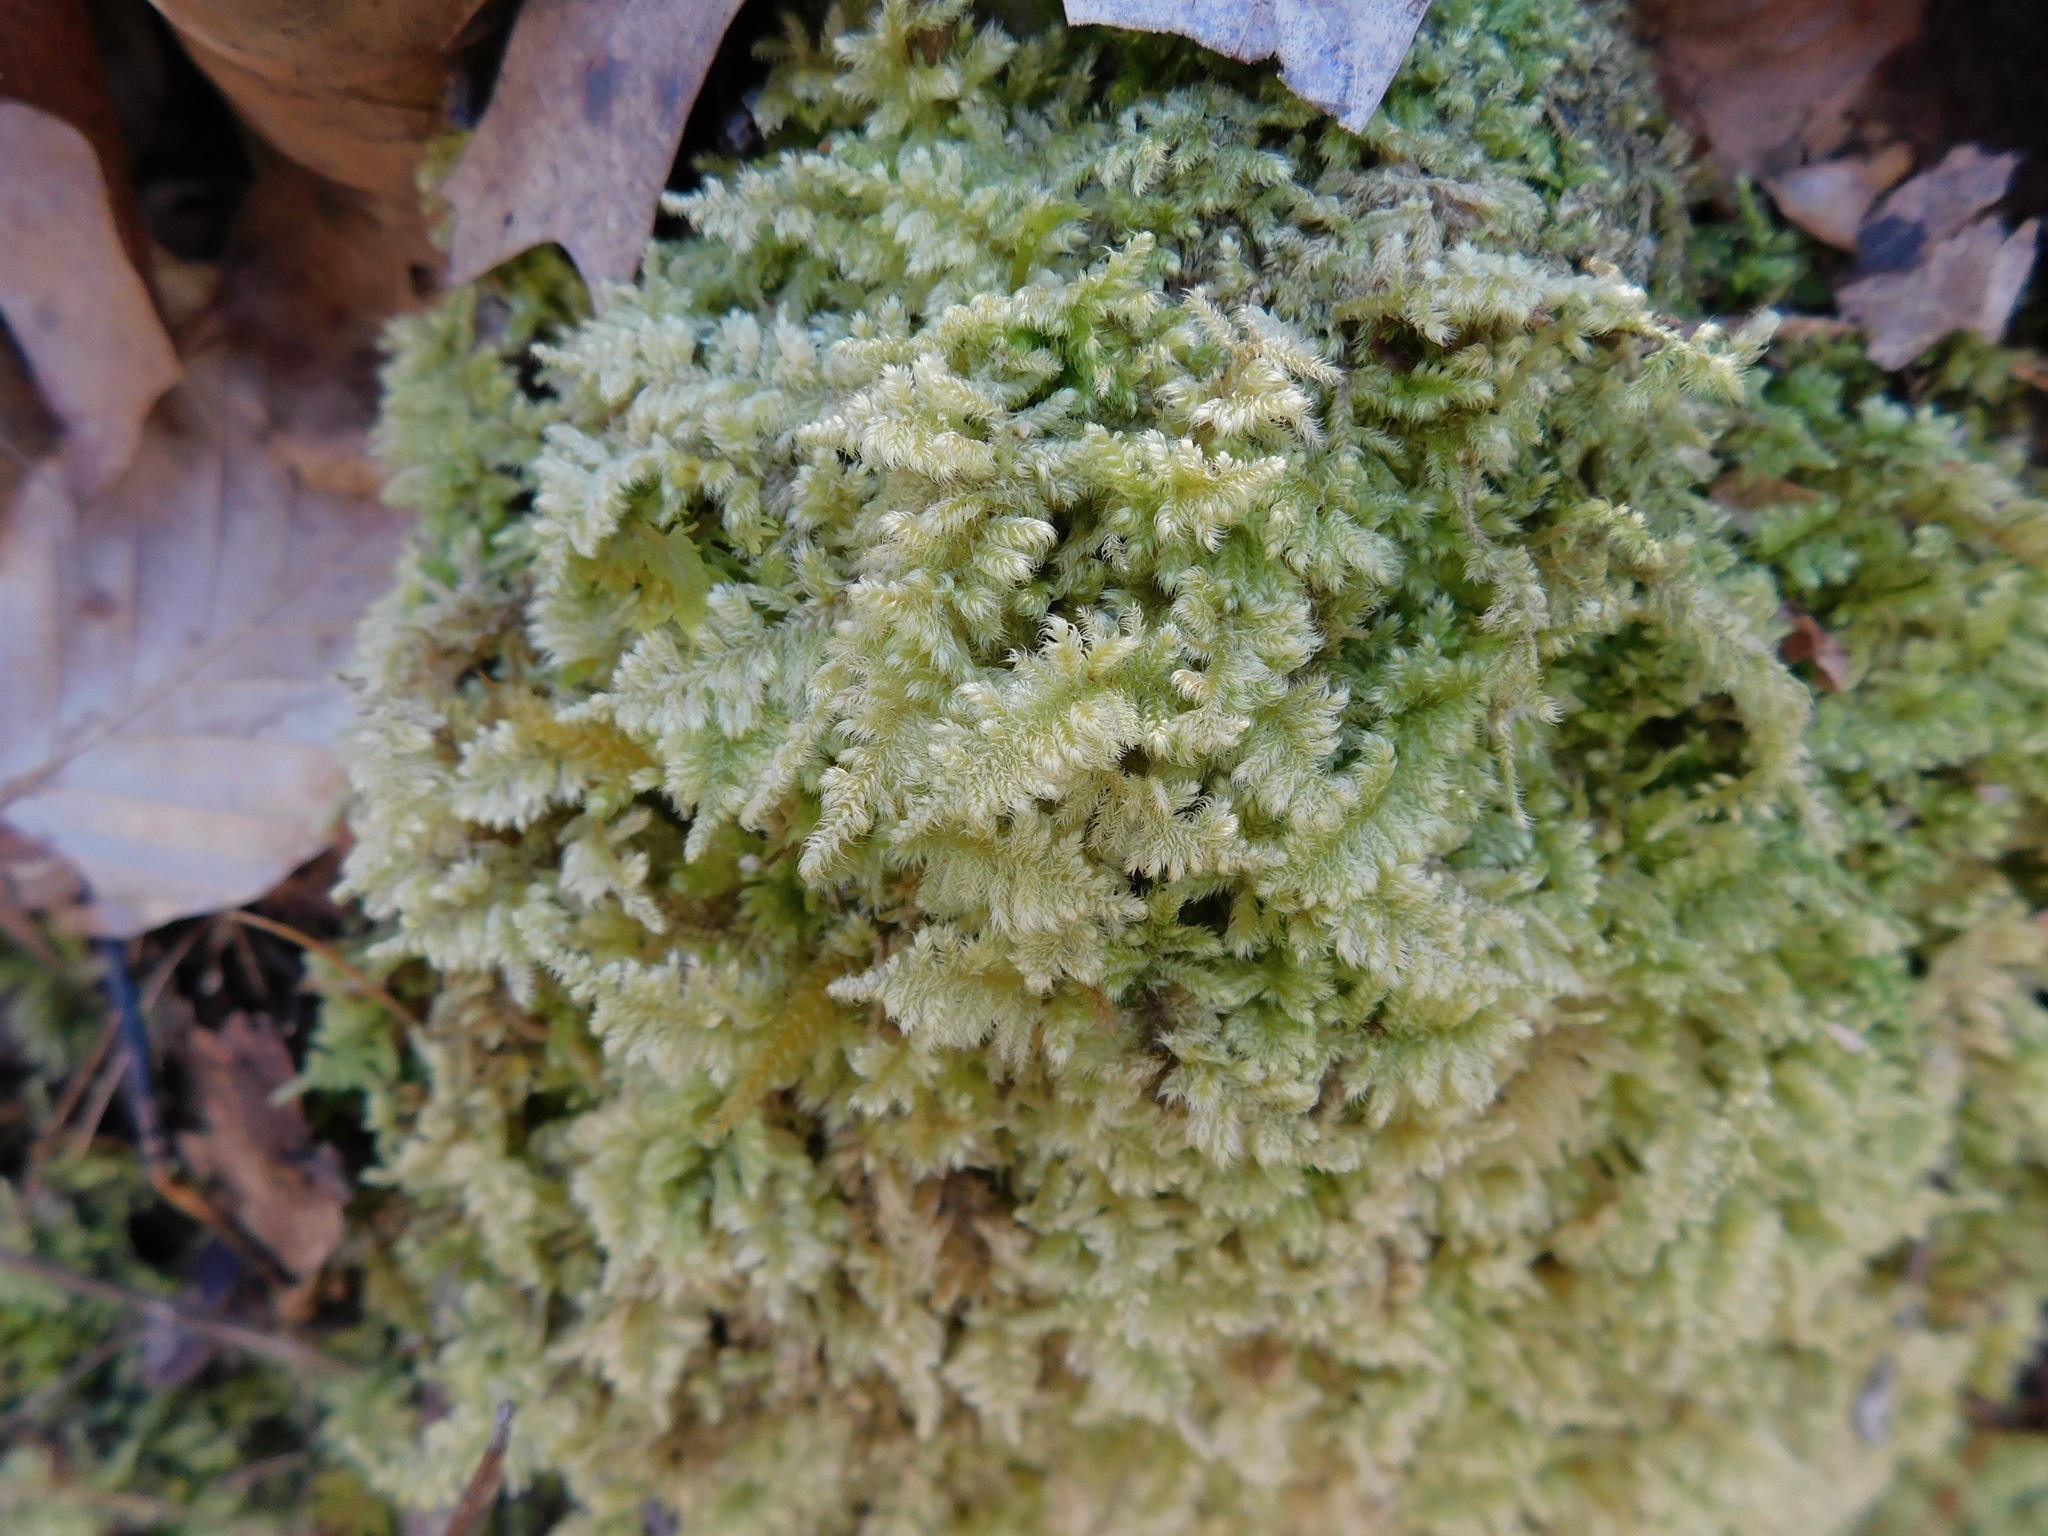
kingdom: Plantae
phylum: Bryophyta
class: Bryopsida
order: Hypnales
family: Myuriaceae
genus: Ctenidium
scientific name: Ctenidium molluscum
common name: Chalk comb-moss
